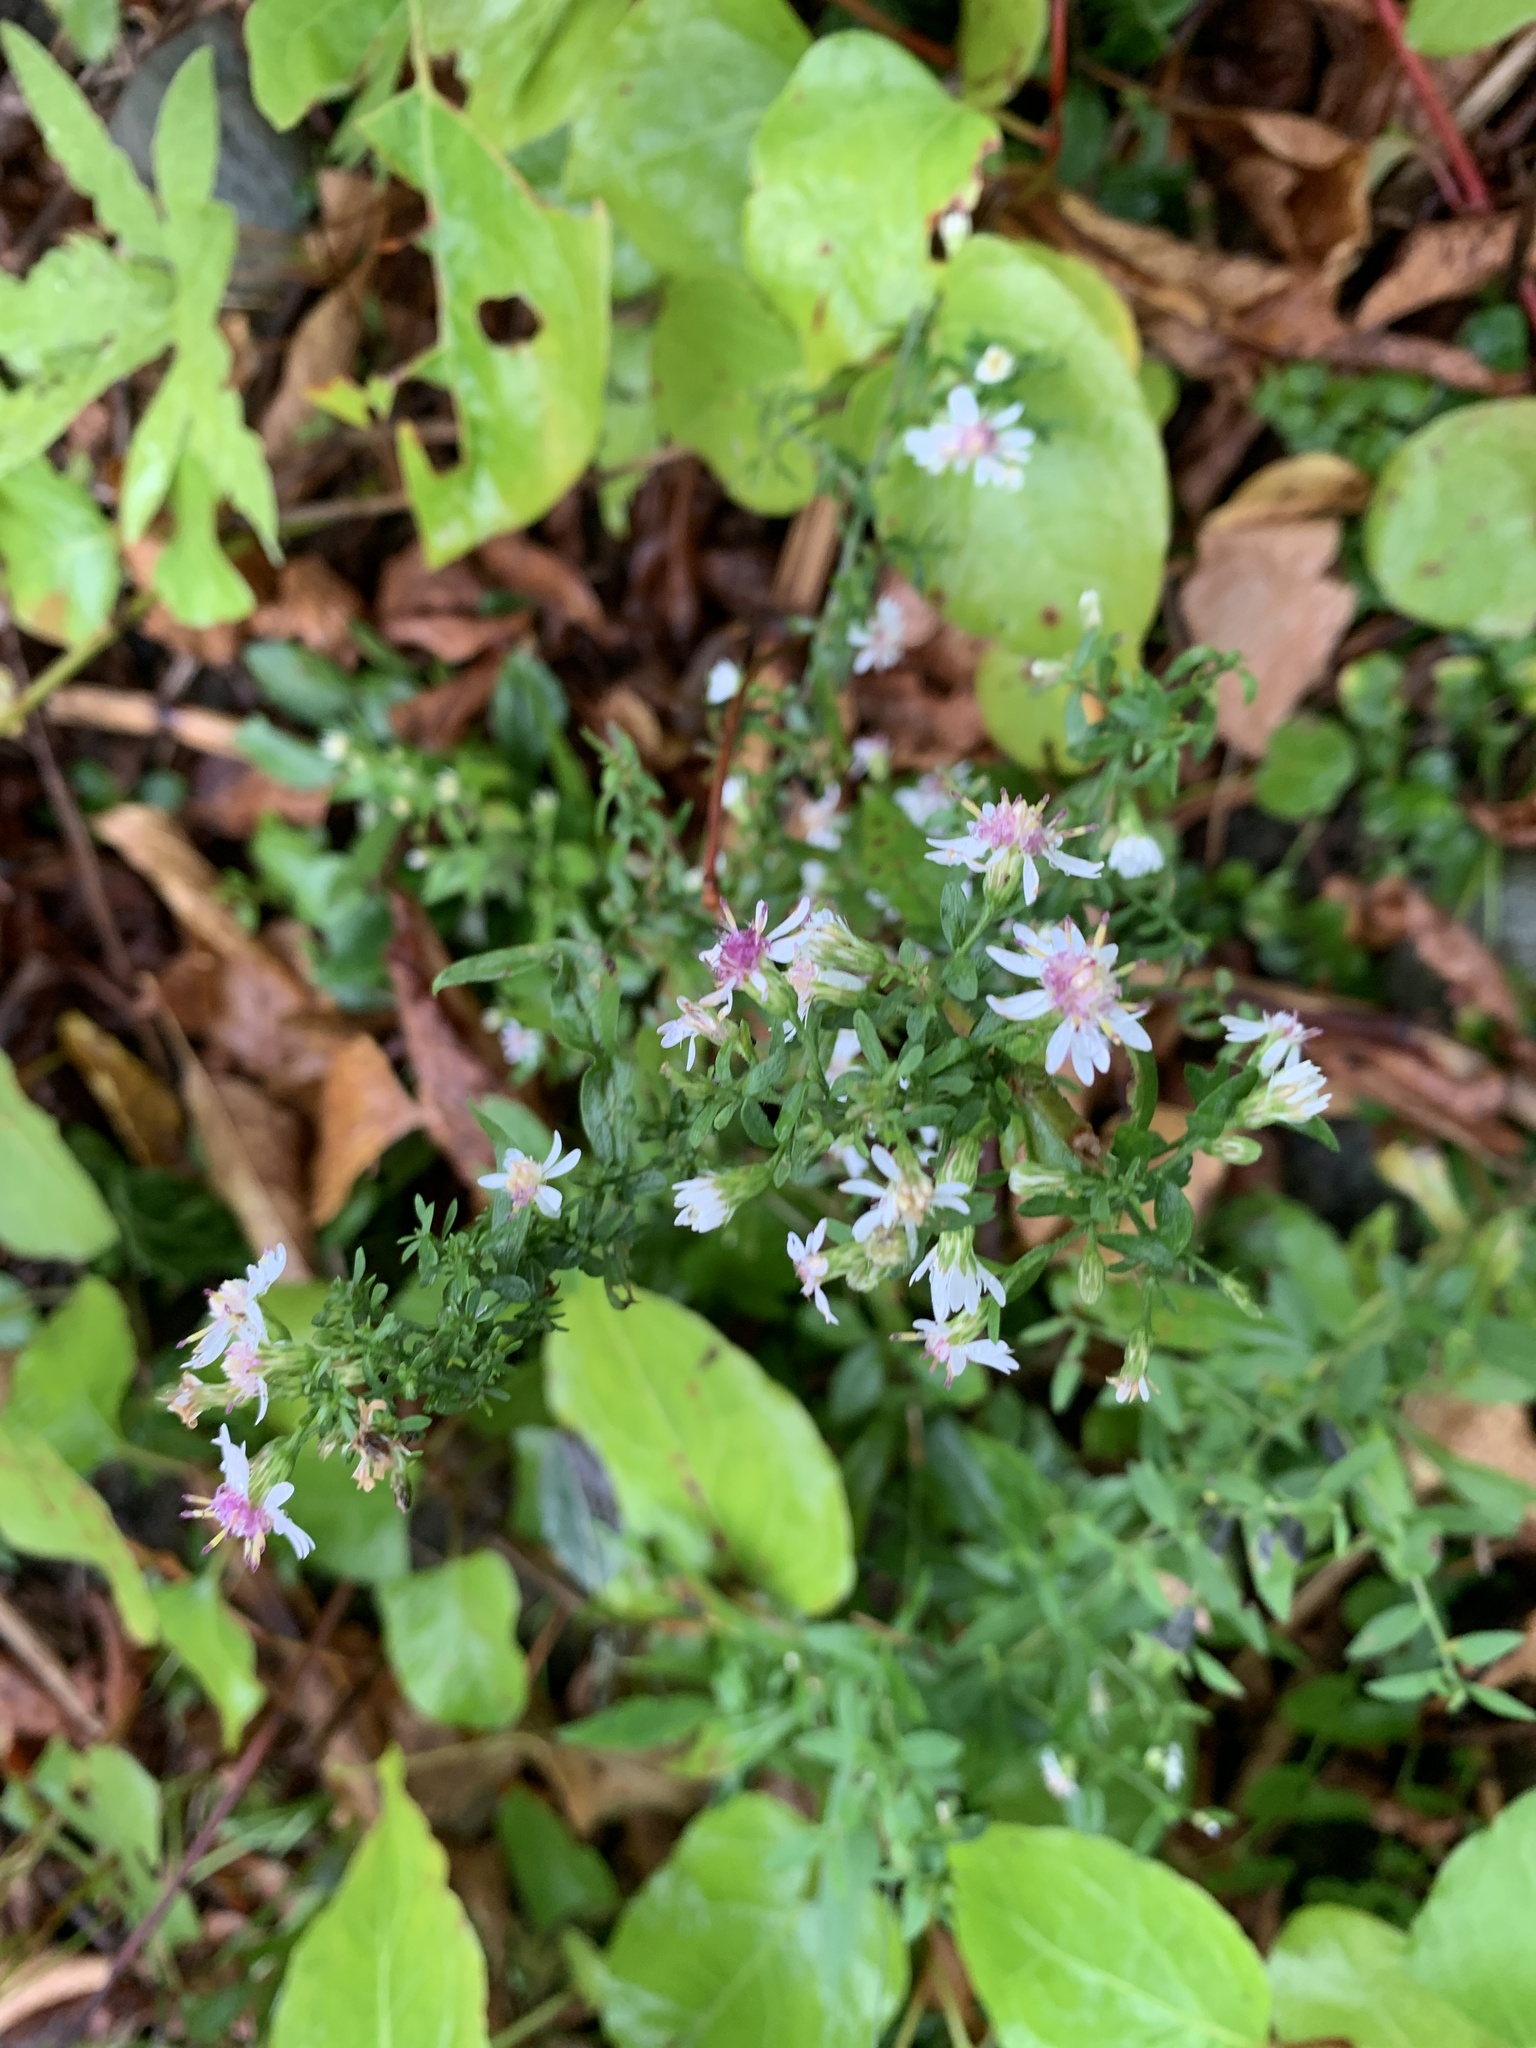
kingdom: Plantae
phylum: Tracheophyta
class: Magnoliopsida
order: Asterales
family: Asteraceae
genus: Symphyotrichum
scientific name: Symphyotrichum lateriflorum
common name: Calico aster
